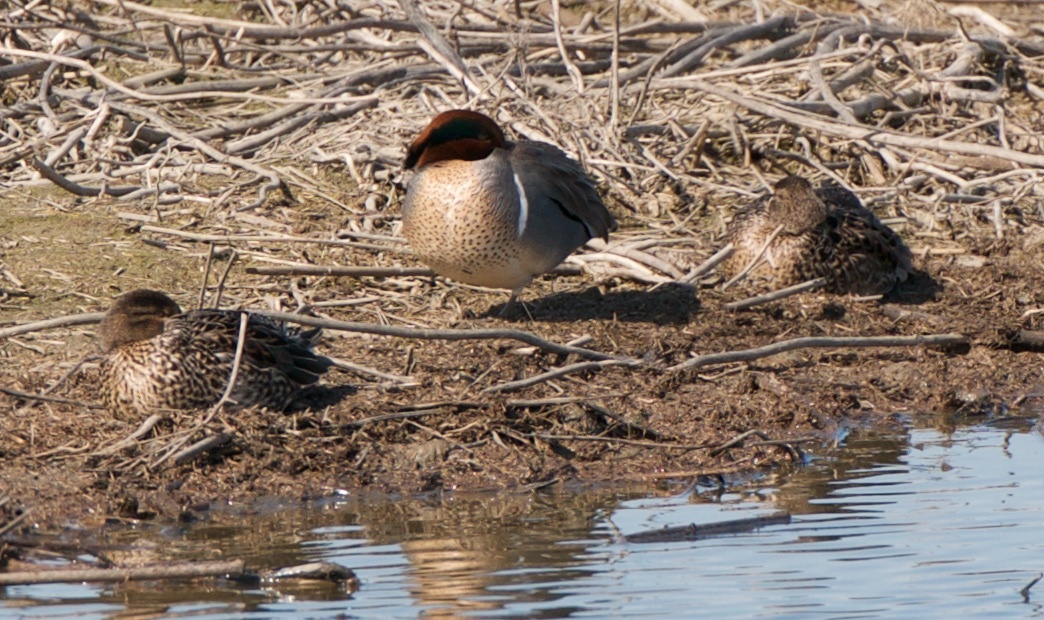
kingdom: Animalia
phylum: Chordata
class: Aves
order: Anseriformes
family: Anatidae
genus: Anas
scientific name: Anas crecca
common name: Eurasian teal
